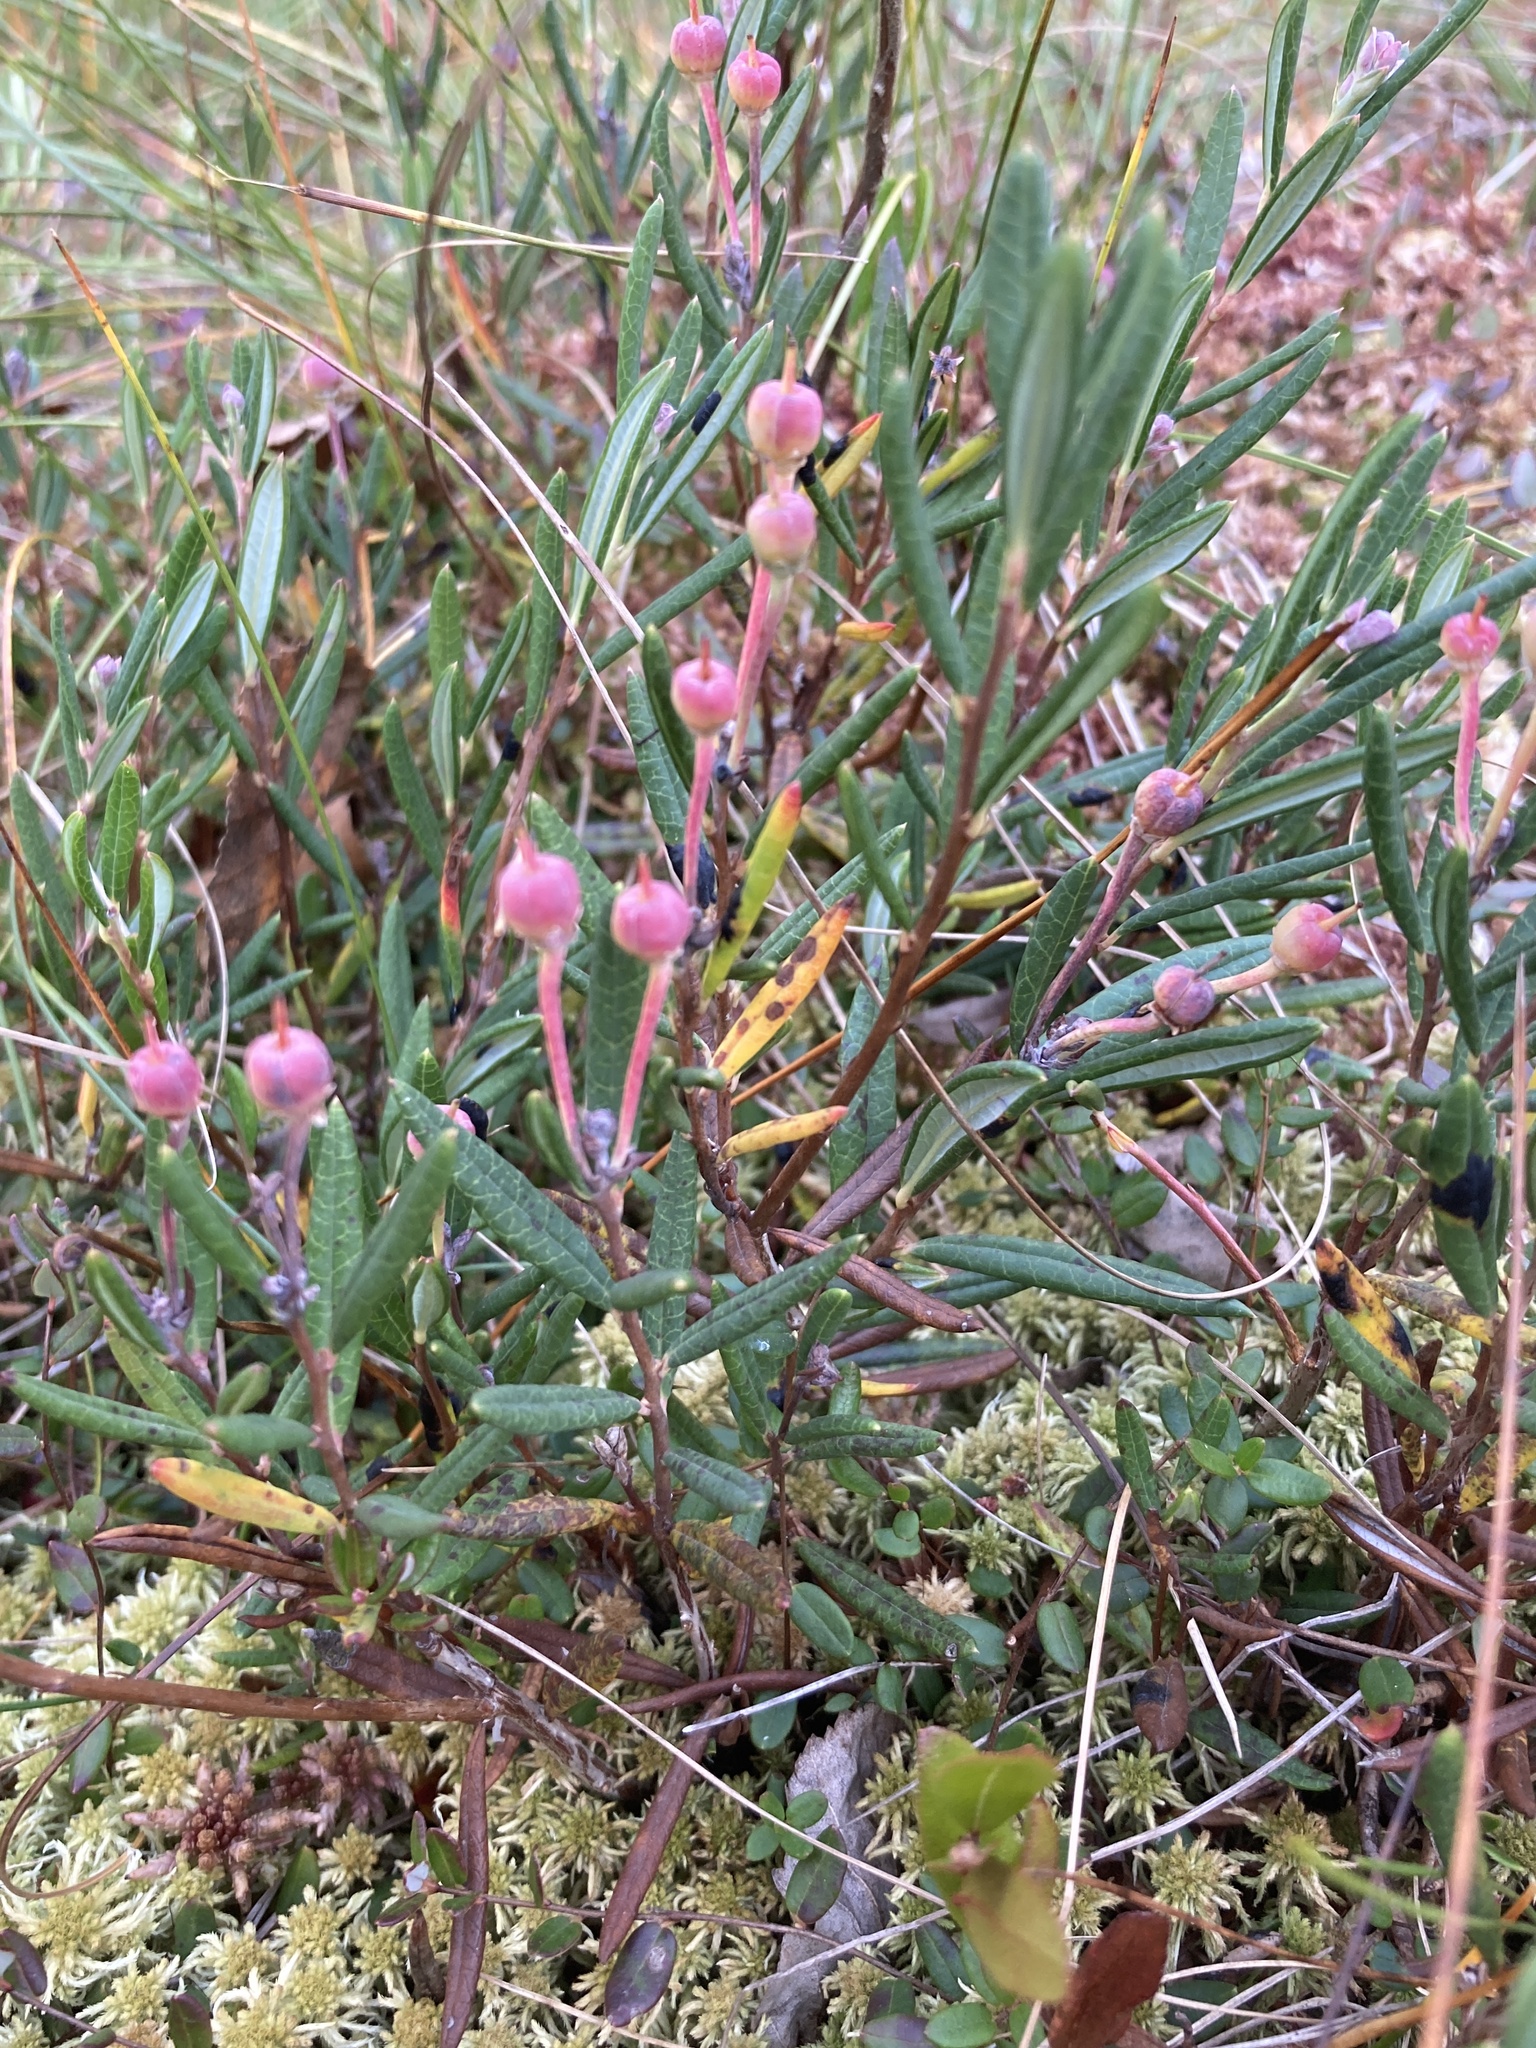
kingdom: Plantae
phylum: Tracheophyta
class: Magnoliopsida
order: Ericales
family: Ericaceae
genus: Andromeda
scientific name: Andromeda polifolia
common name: Bog-rosemary
